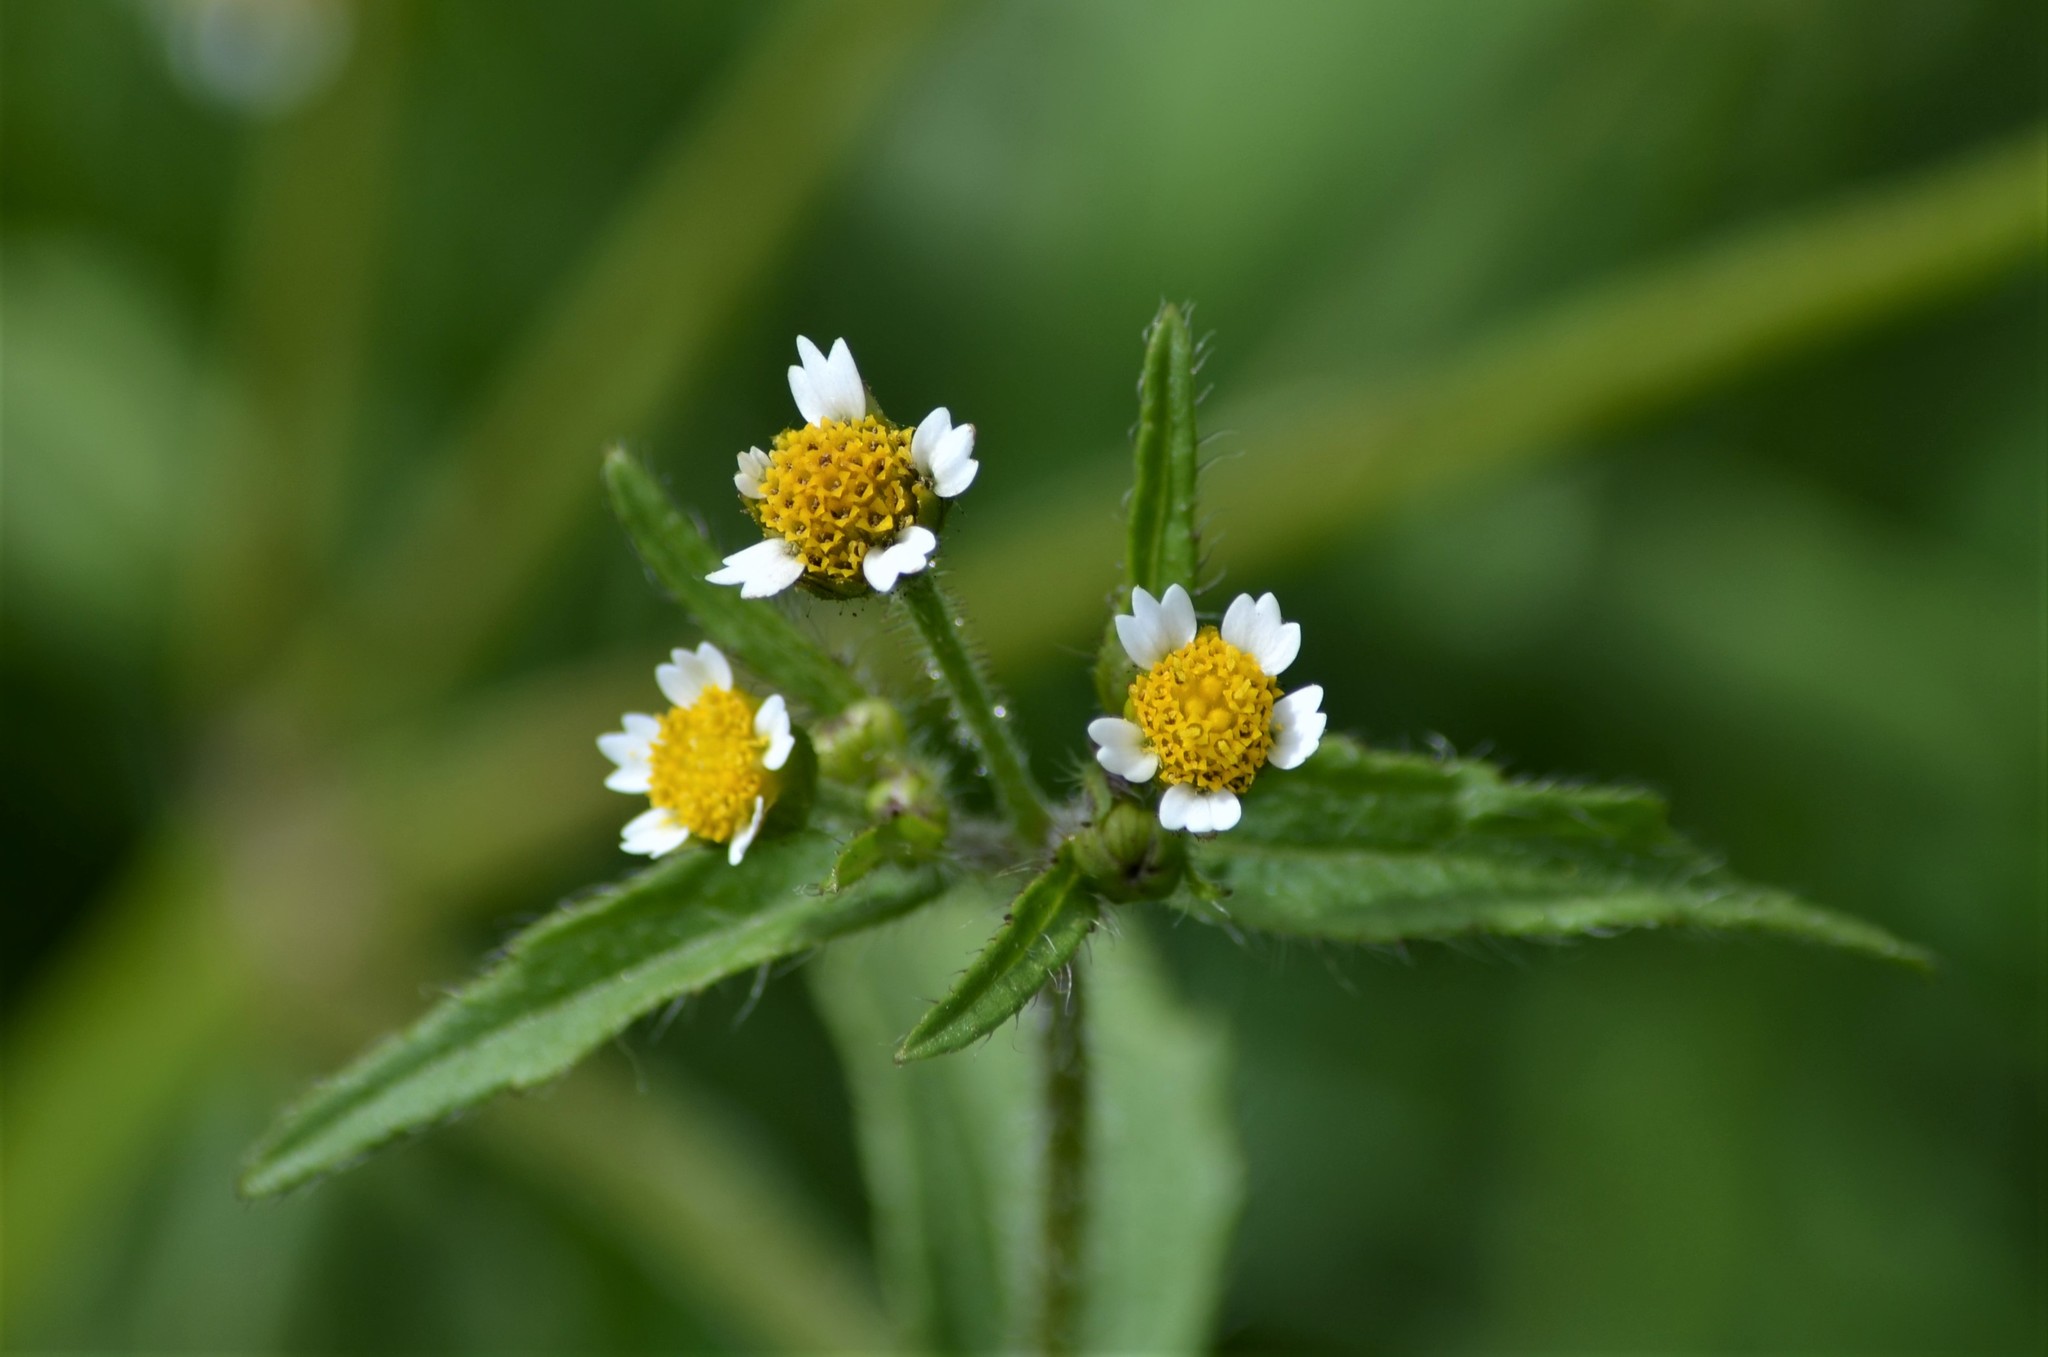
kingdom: Plantae
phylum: Tracheophyta
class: Magnoliopsida
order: Asterales
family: Asteraceae
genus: Galinsoga
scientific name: Galinsoga quadriradiata
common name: Shaggy soldier
